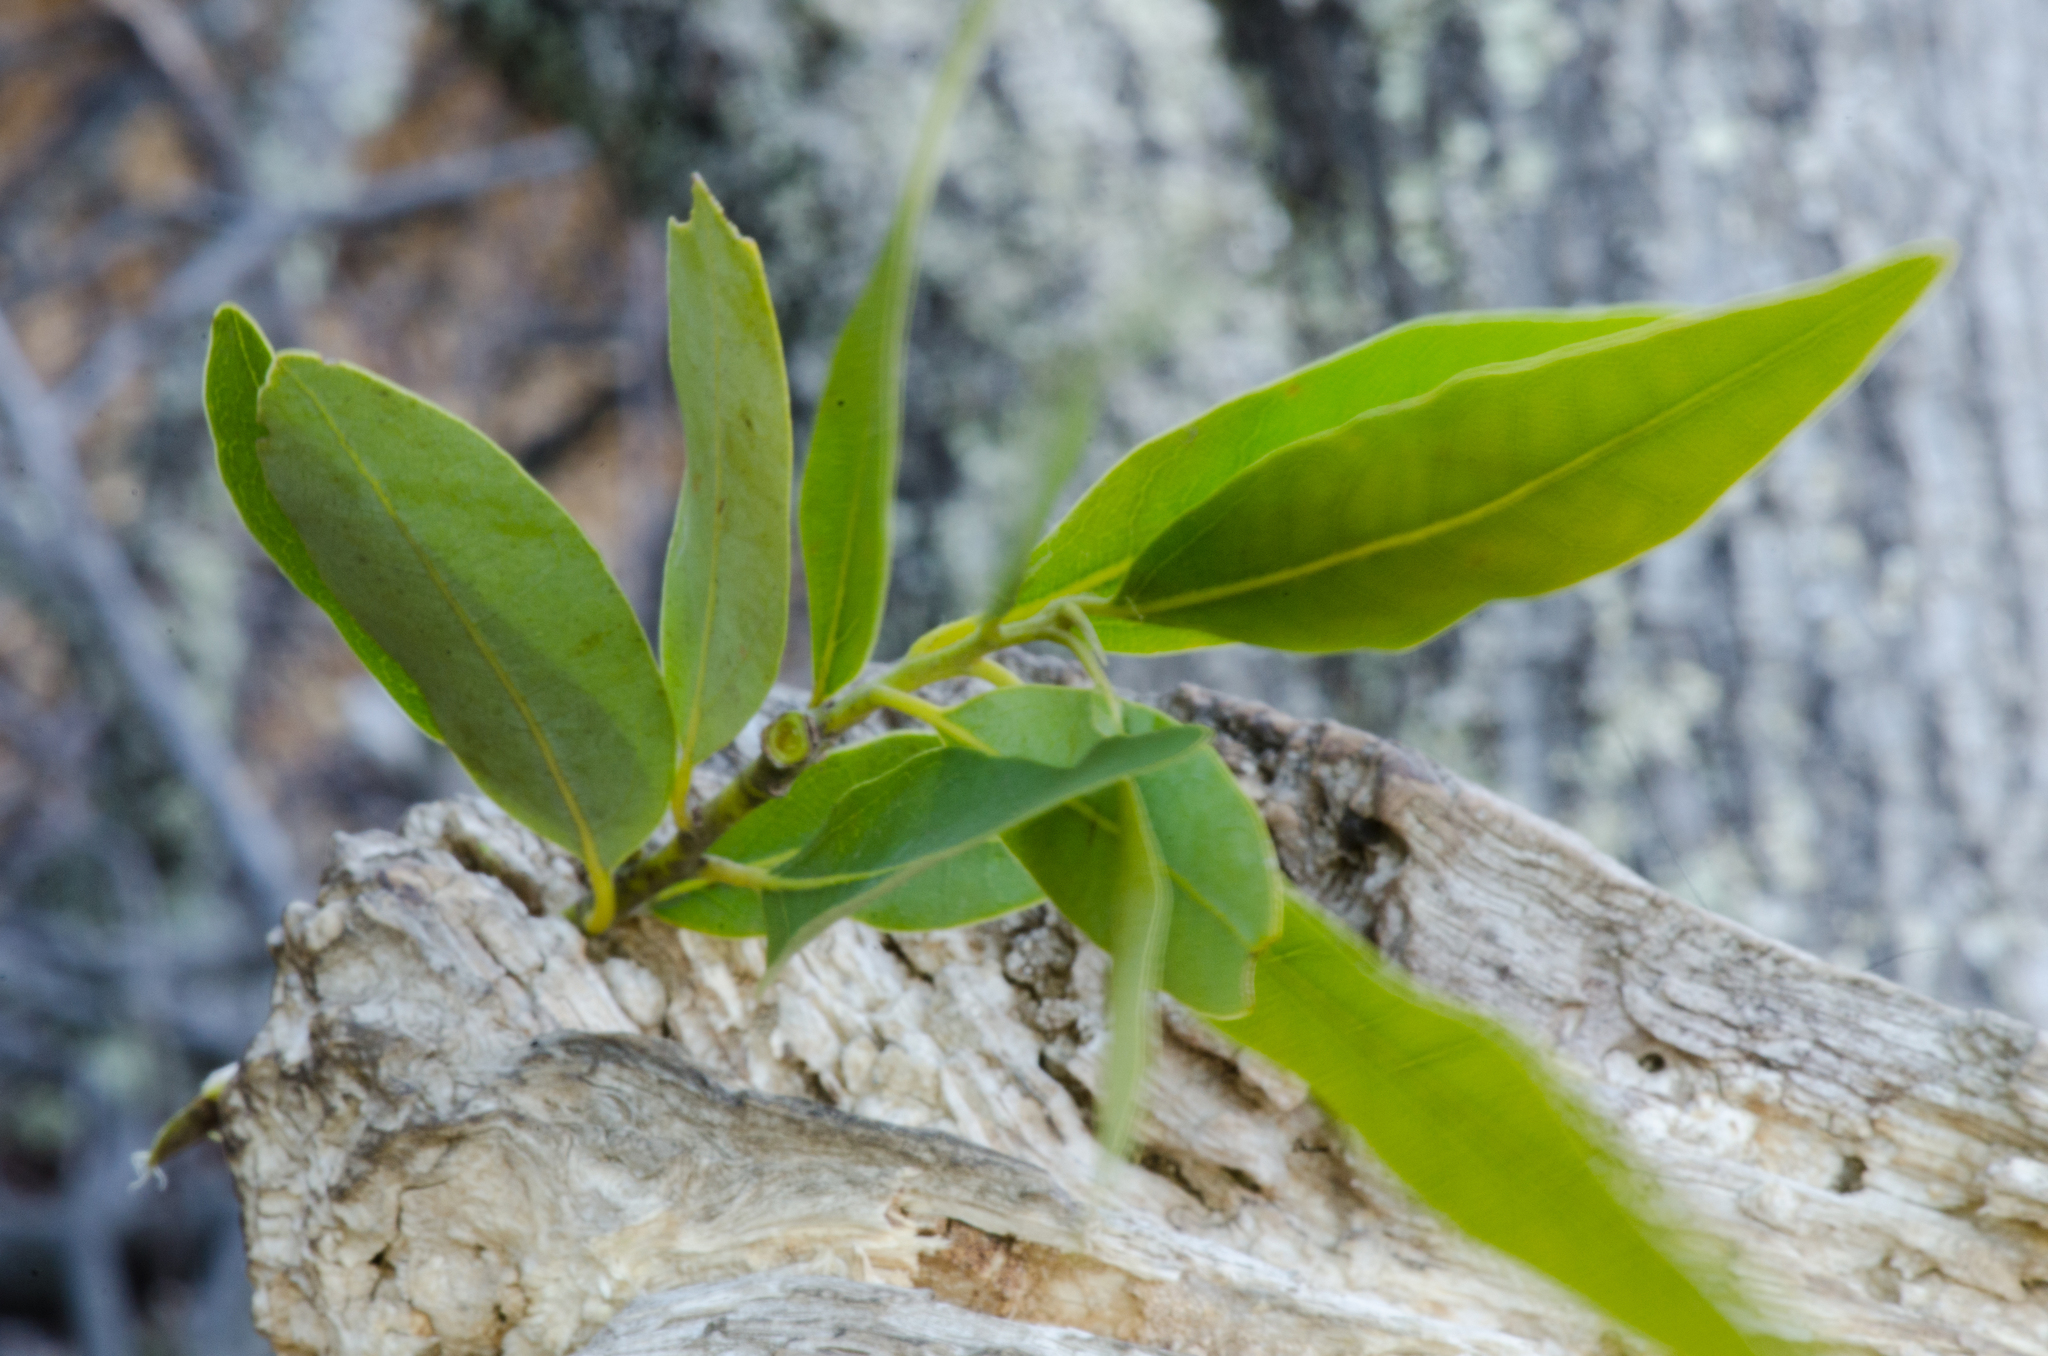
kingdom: Plantae
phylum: Tracheophyta
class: Magnoliopsida
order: Laurales
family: Lauraceae
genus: Umbellularia
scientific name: Umbellularia californica
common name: California bay
